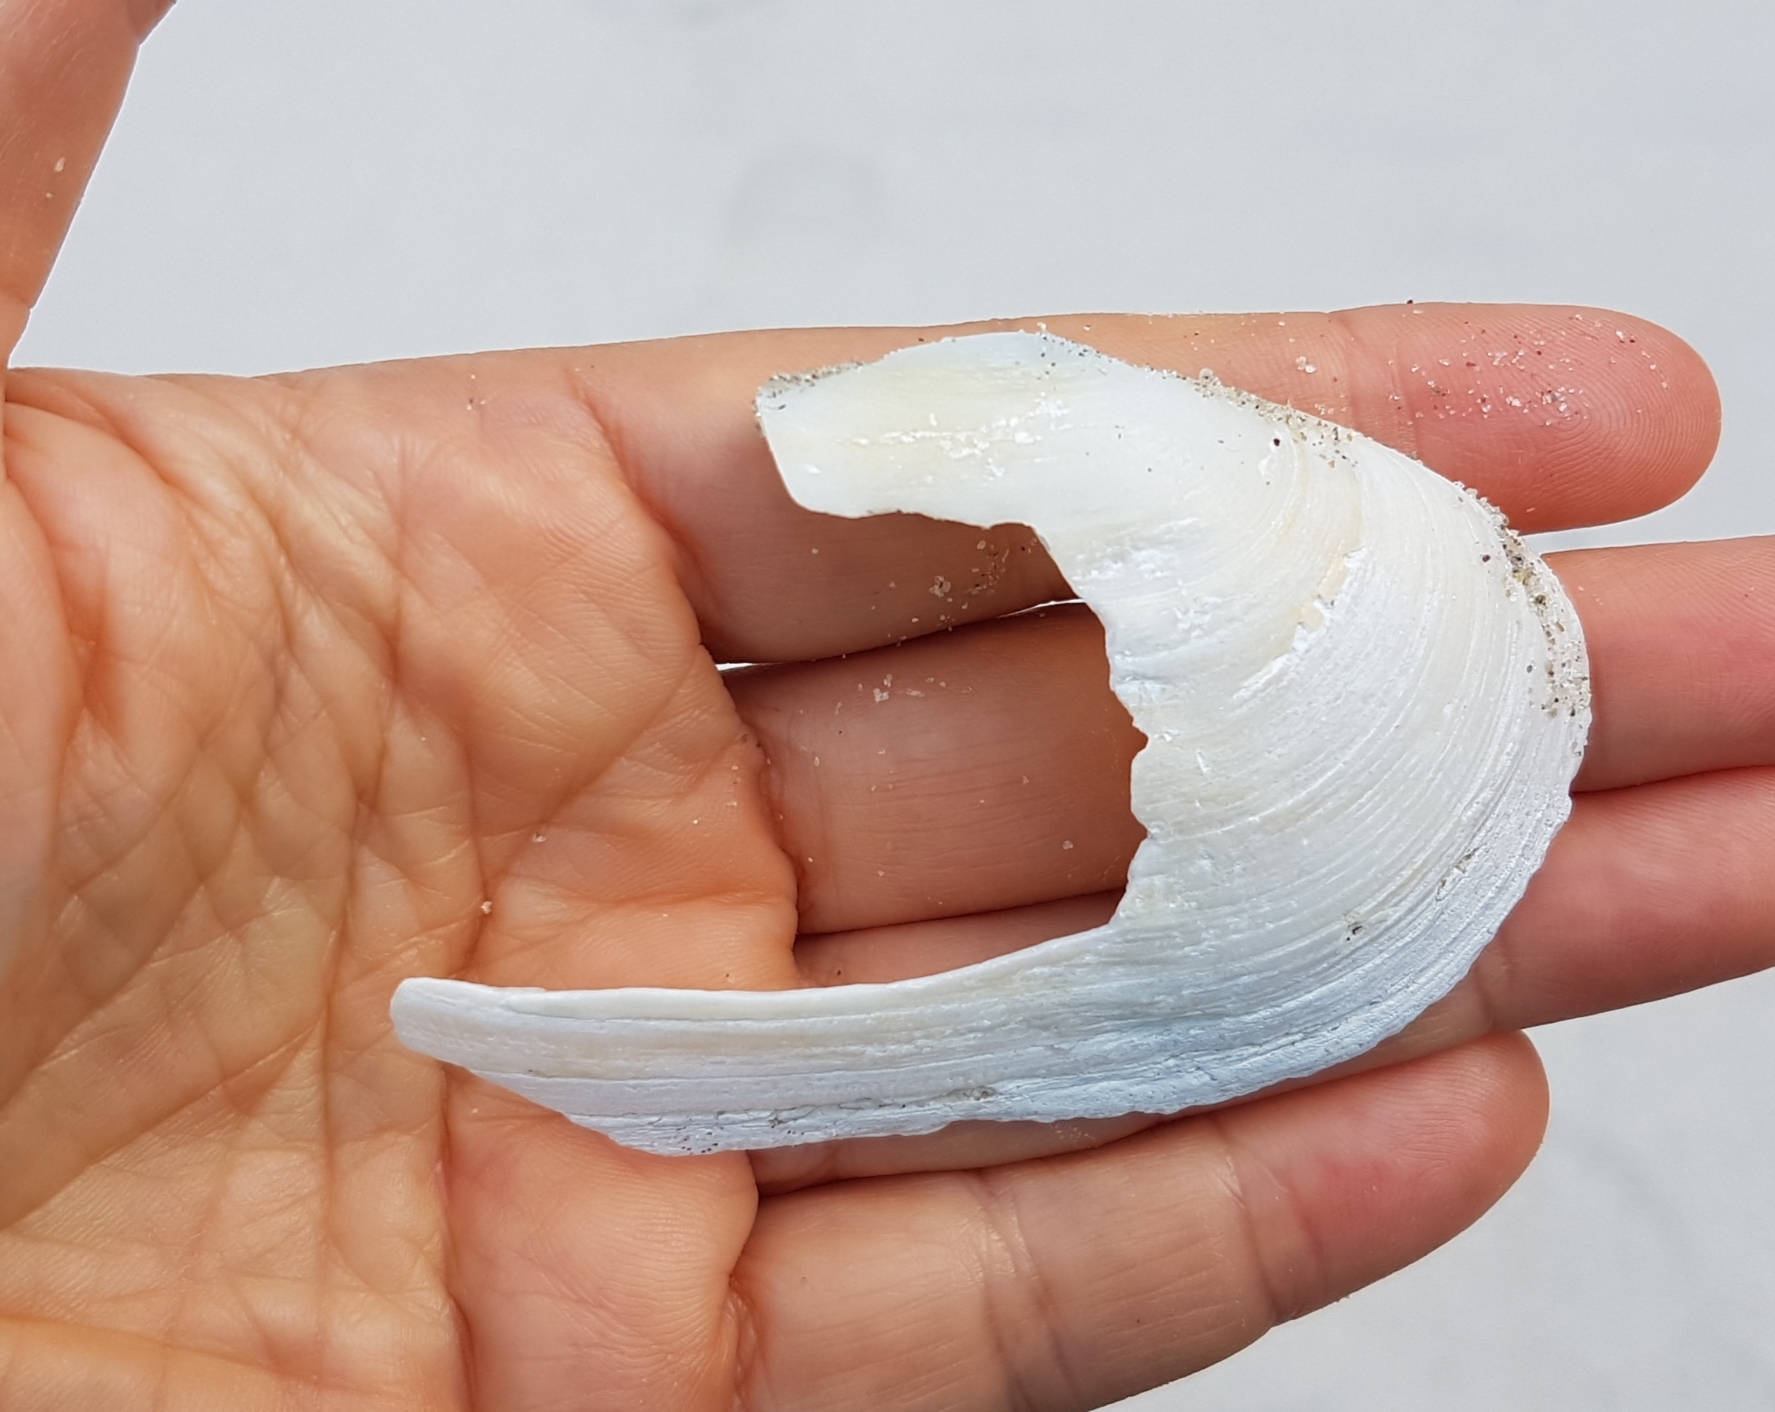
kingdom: Animalia
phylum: Mollusca
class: Bivalvia
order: Venerida
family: Mactridae
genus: Lutraria
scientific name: Lutraria lutraria
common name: Common otter shell
